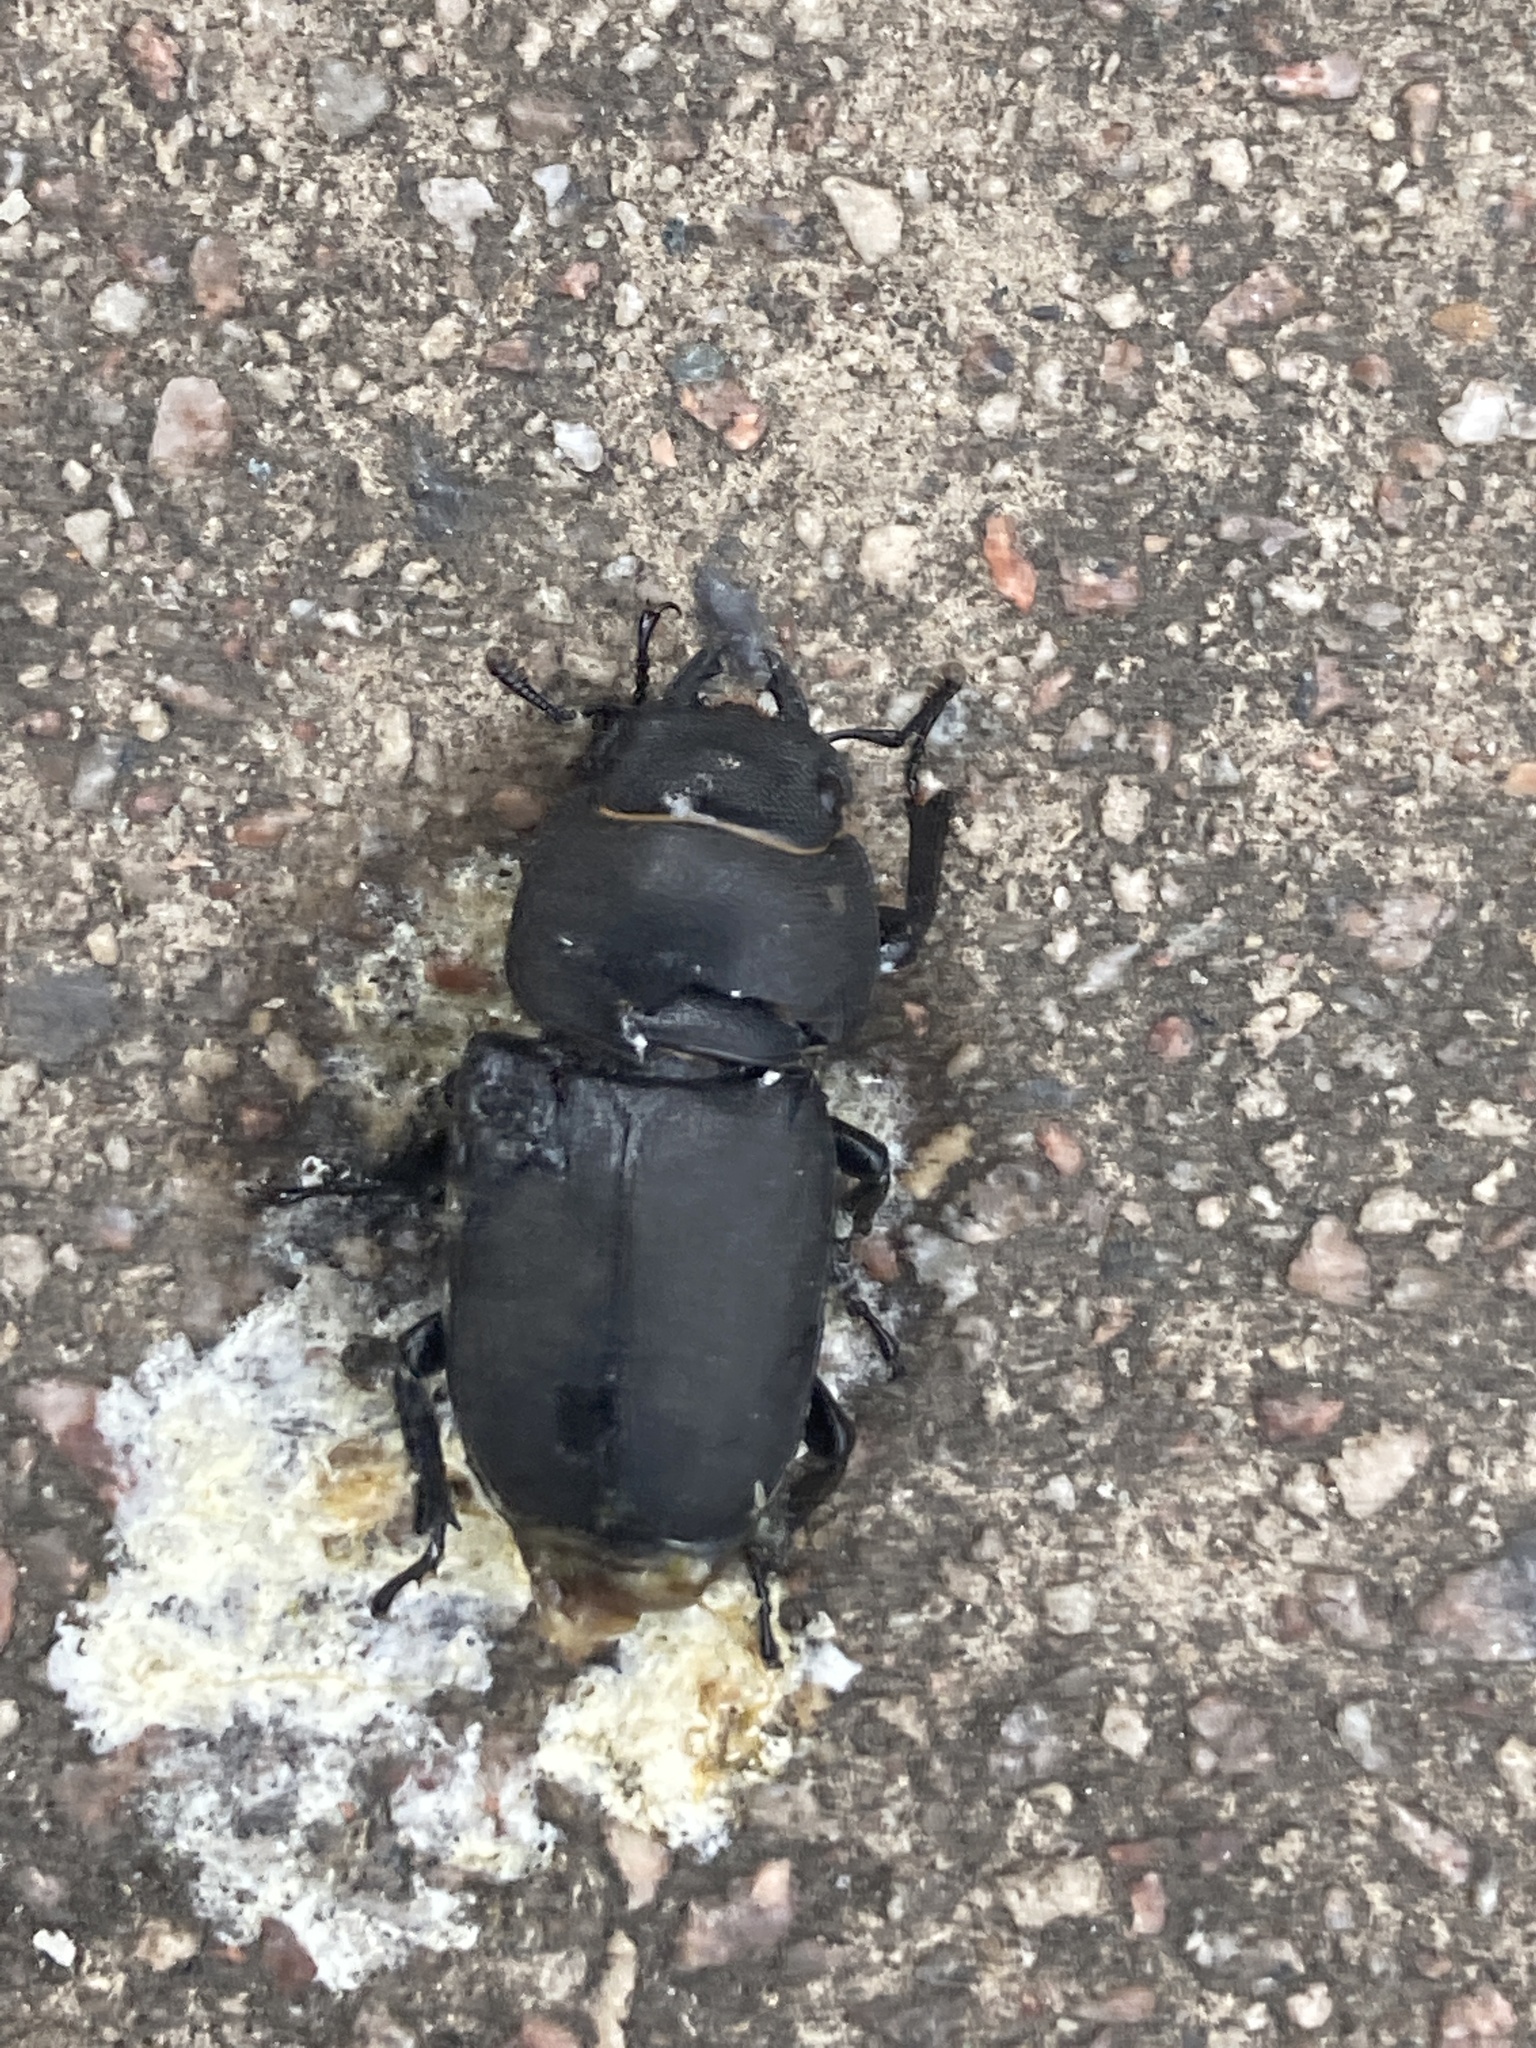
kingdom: Animalia
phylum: Arthropoda
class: Insecta
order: Coleoptera
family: Lucanidae
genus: Dorcus
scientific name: Dorcus parallelipipedus
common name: Lesser stag beetle
